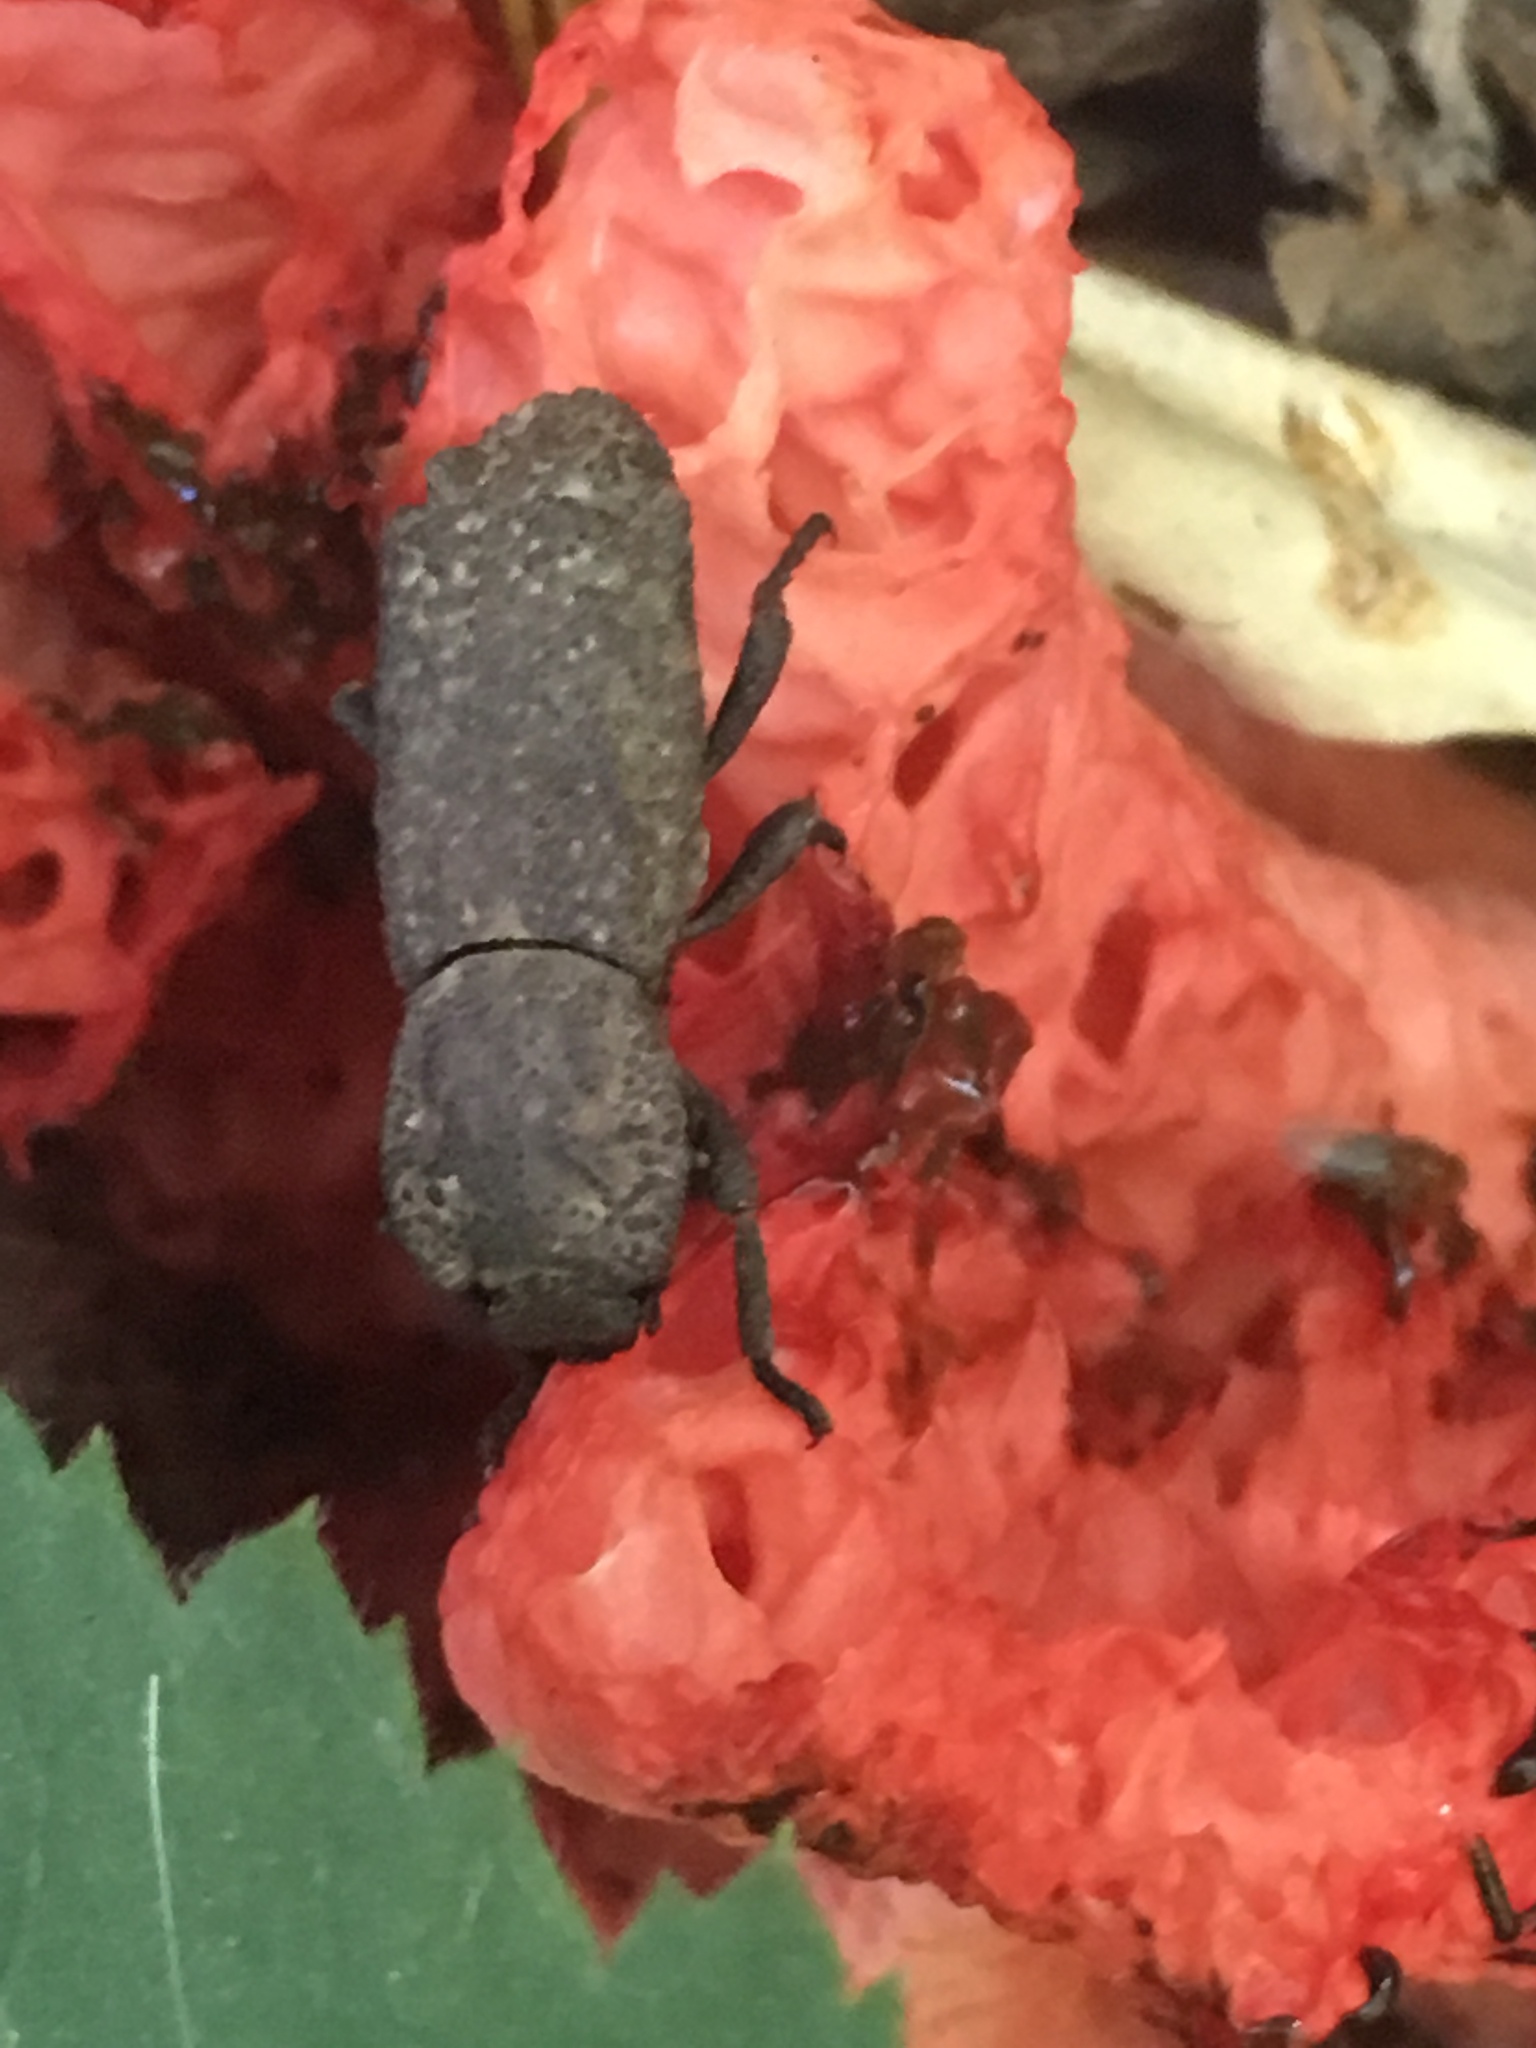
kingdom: Animalia
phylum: Arthropoda
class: Insecta
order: Coleoptera
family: Zopheridae
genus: Phloeodes
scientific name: Phloeodes diabolicus
